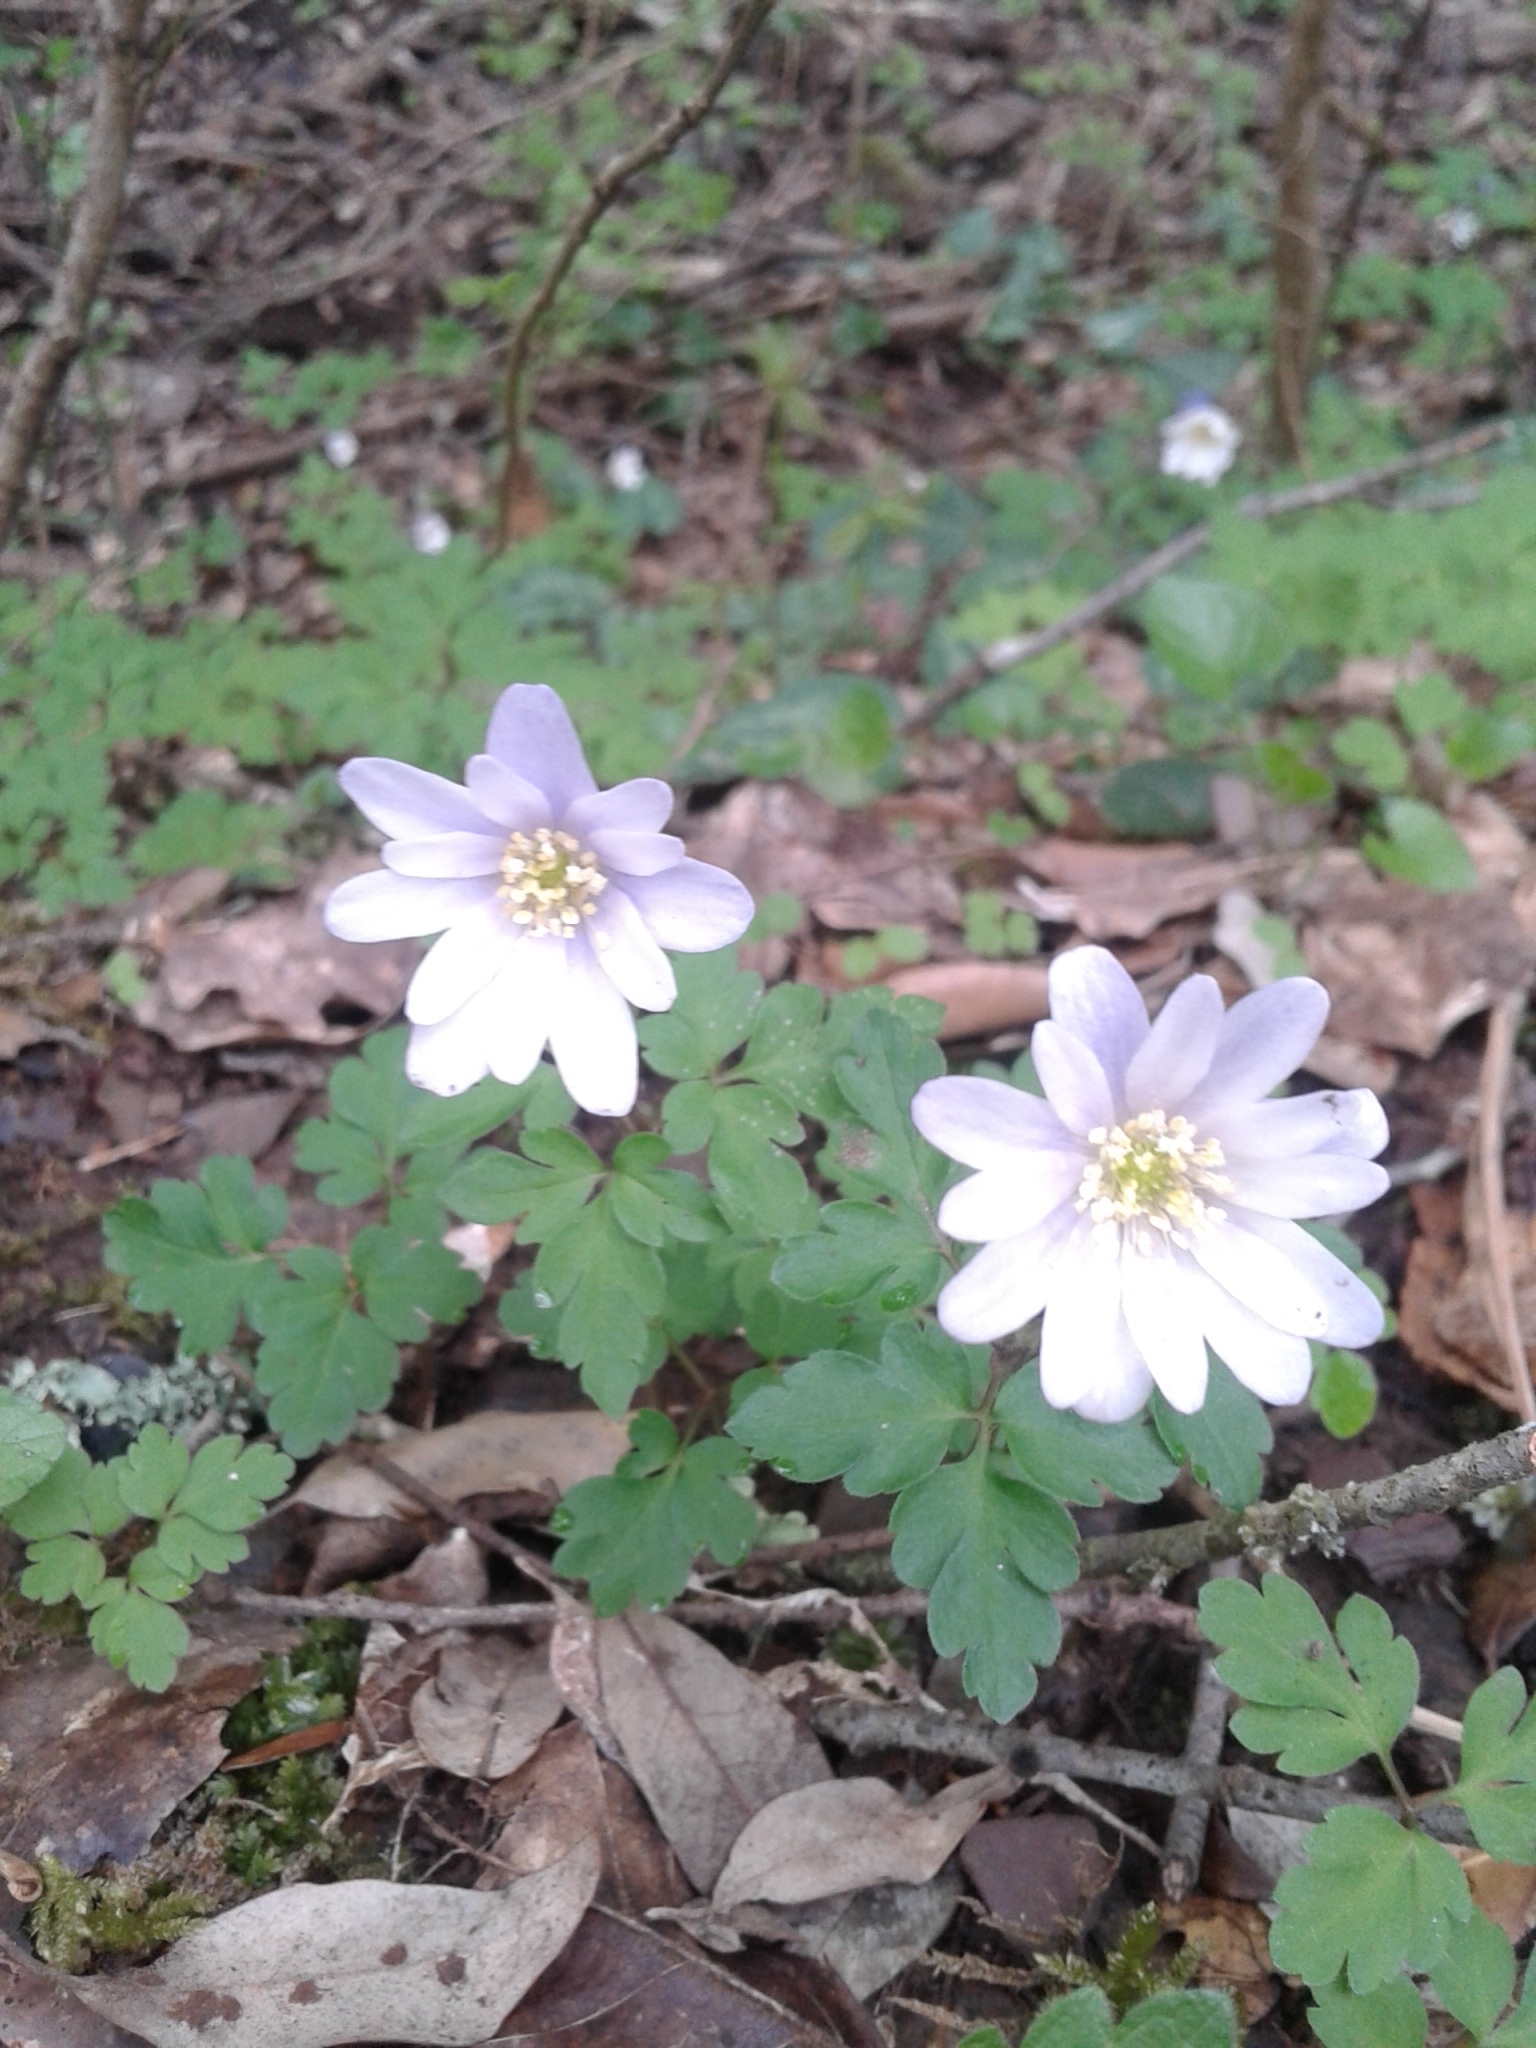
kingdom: Plantae
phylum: Tracheophyta
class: Magnoliopsida
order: Ranunculales
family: Ranunculaceae
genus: Anemone
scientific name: Anemone apennina
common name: Blue anemone
